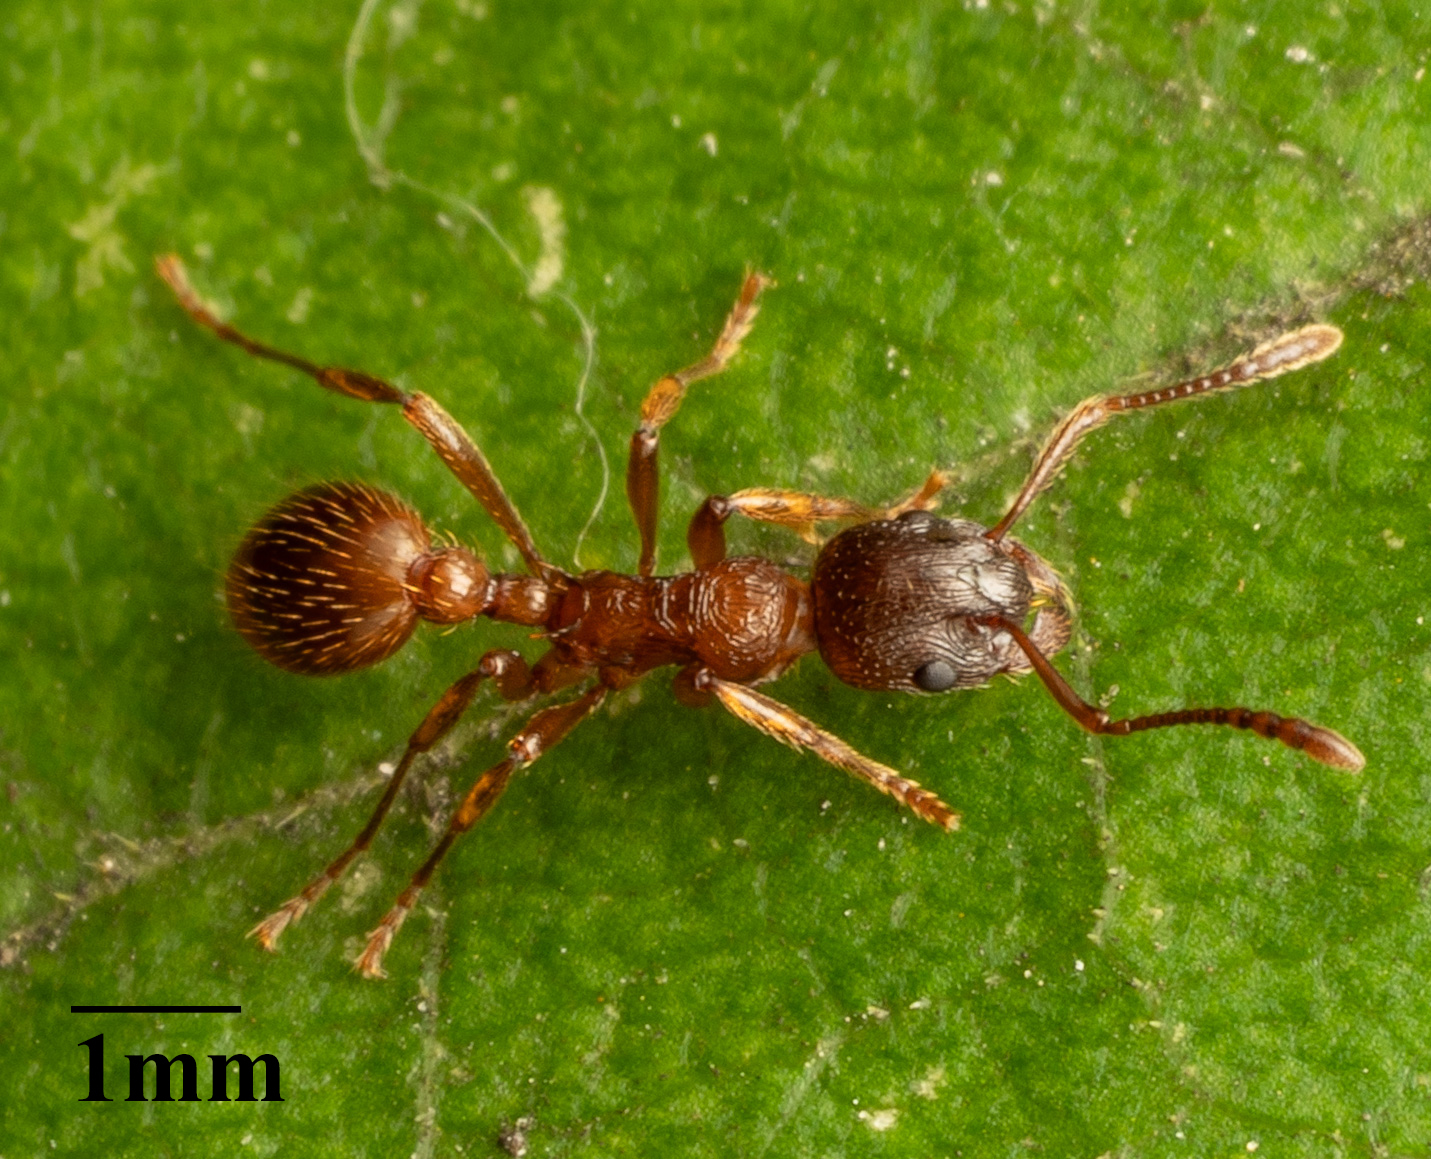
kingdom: Animalia
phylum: Arthropoda
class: Insecta
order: Hymenoptera
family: Formicidae
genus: Myrmica
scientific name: Myrmica rubra
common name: European fire ant
